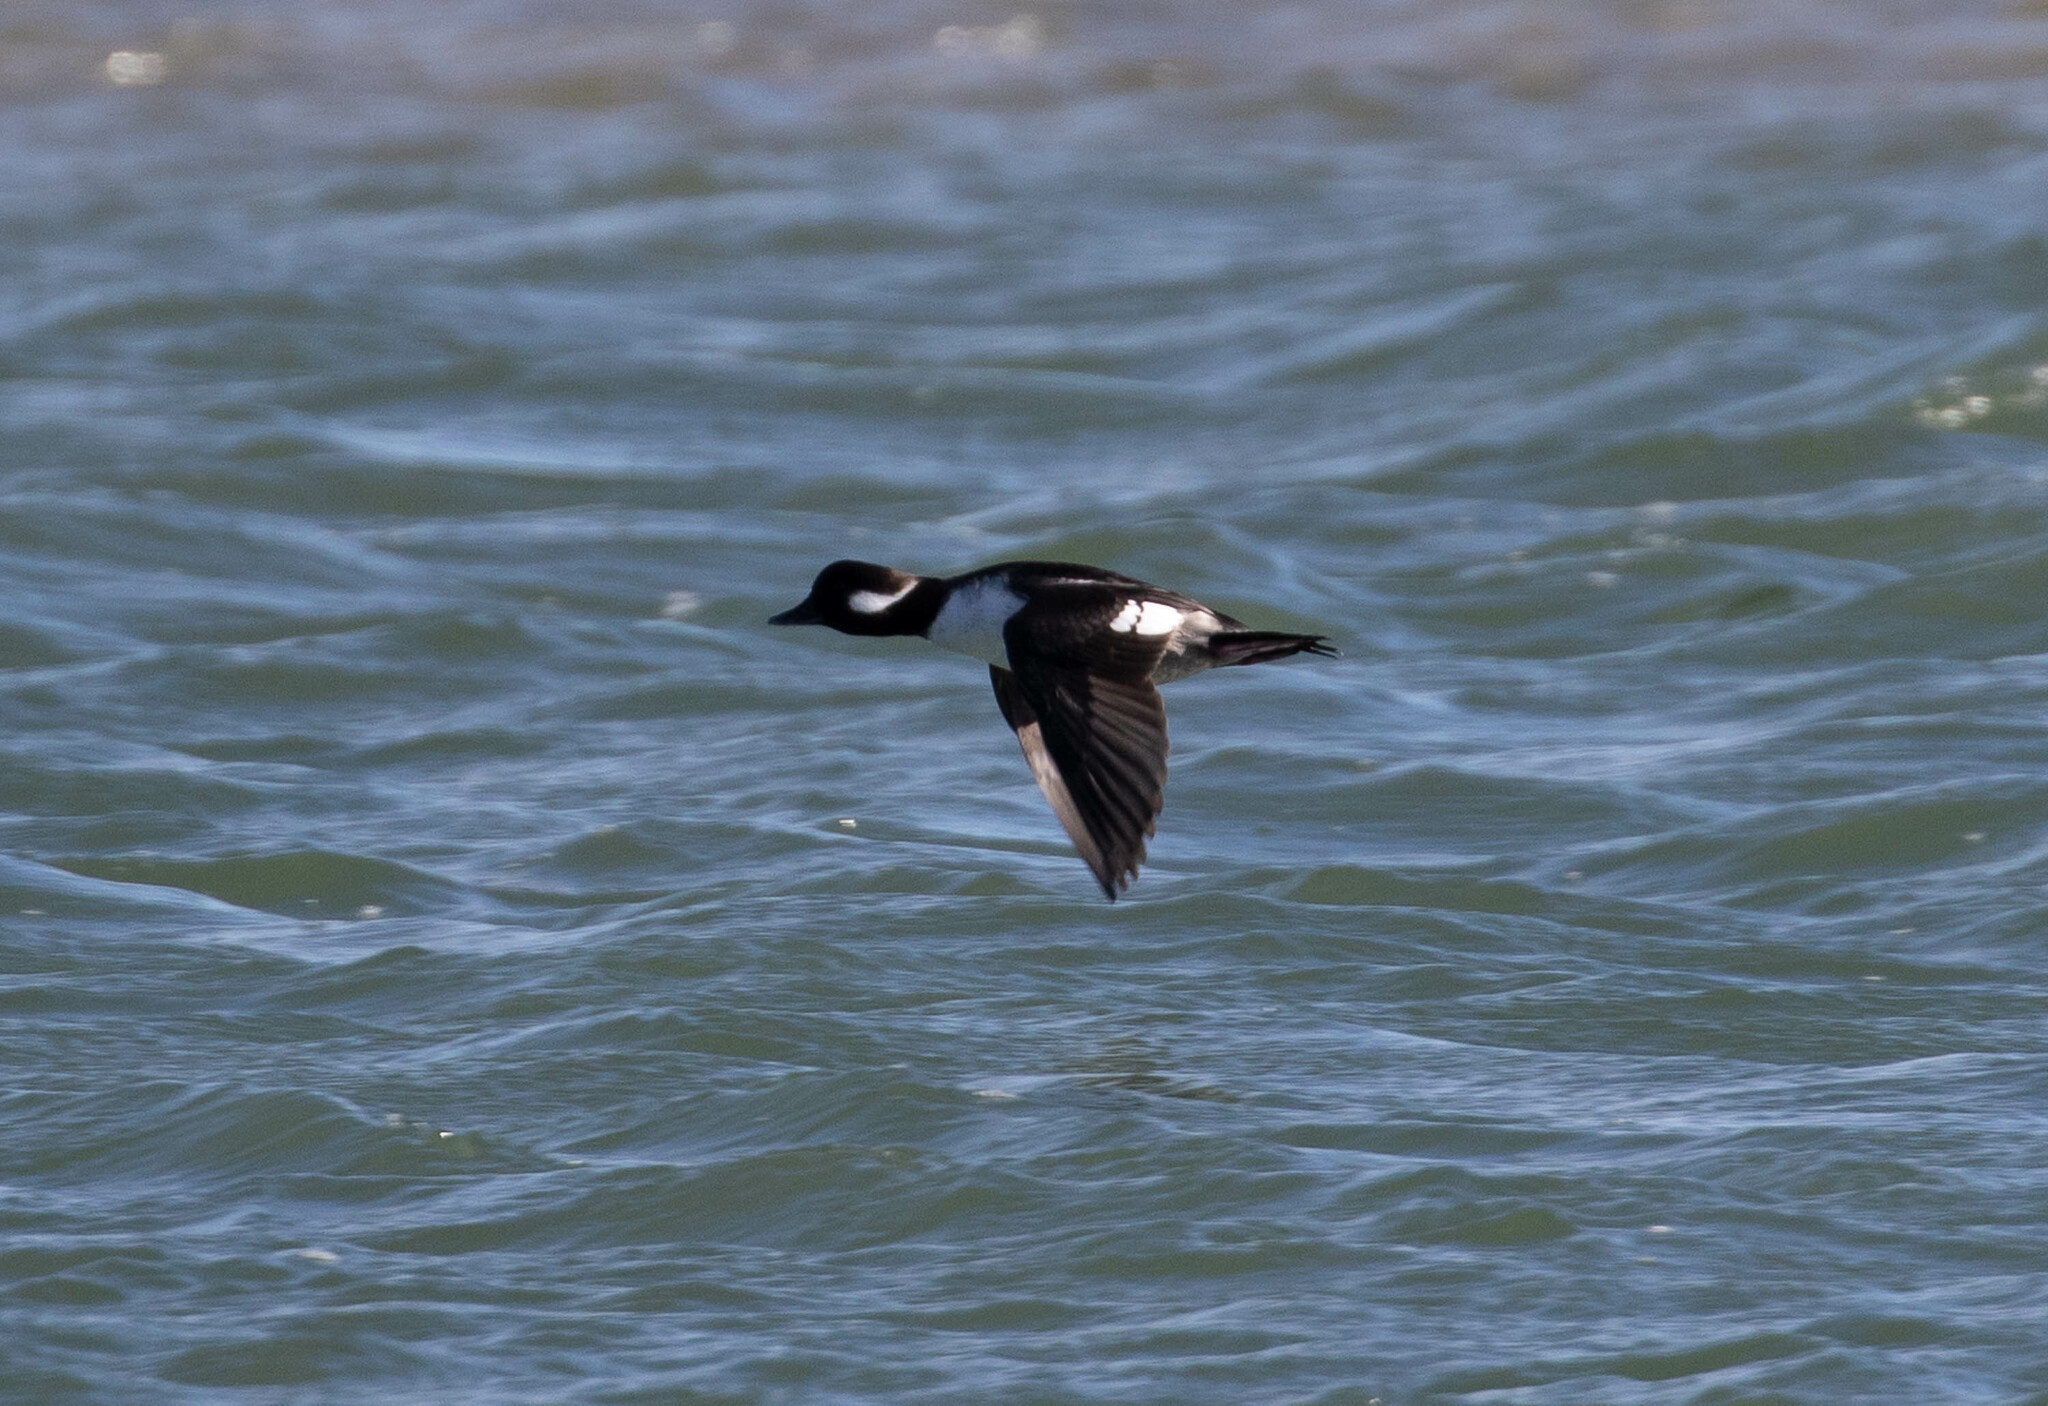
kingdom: Animalia
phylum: Chordata
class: Aves
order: Anseriformes
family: Anatidae
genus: Bucephala
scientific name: Bucephala albeola
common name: Bufflehead
